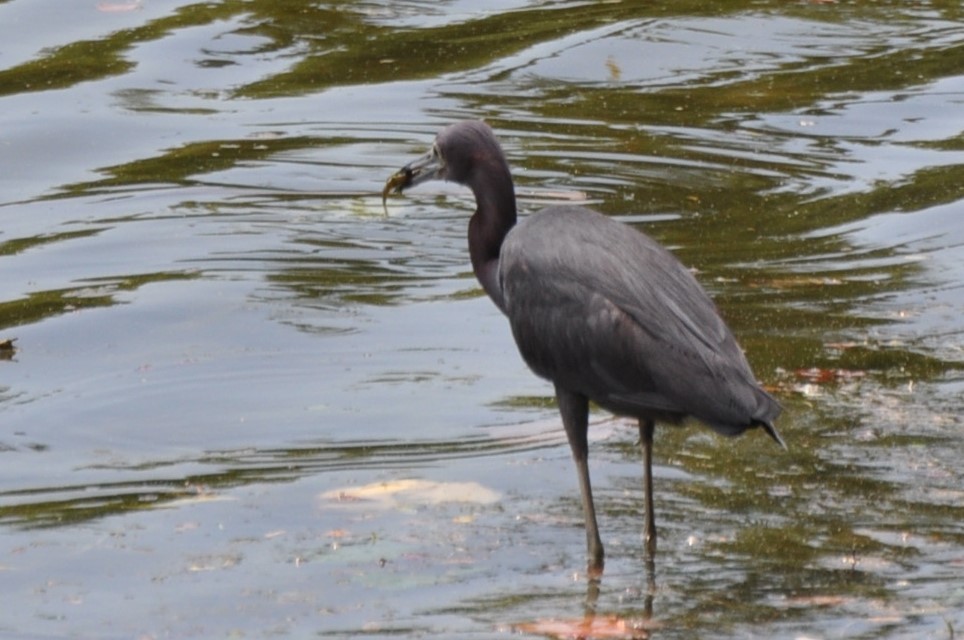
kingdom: Animalia
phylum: Chordata
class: Aves
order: Pelecaniformes
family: Ardeidae
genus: Egretta
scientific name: Egretta caerulea
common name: Little blue heron
